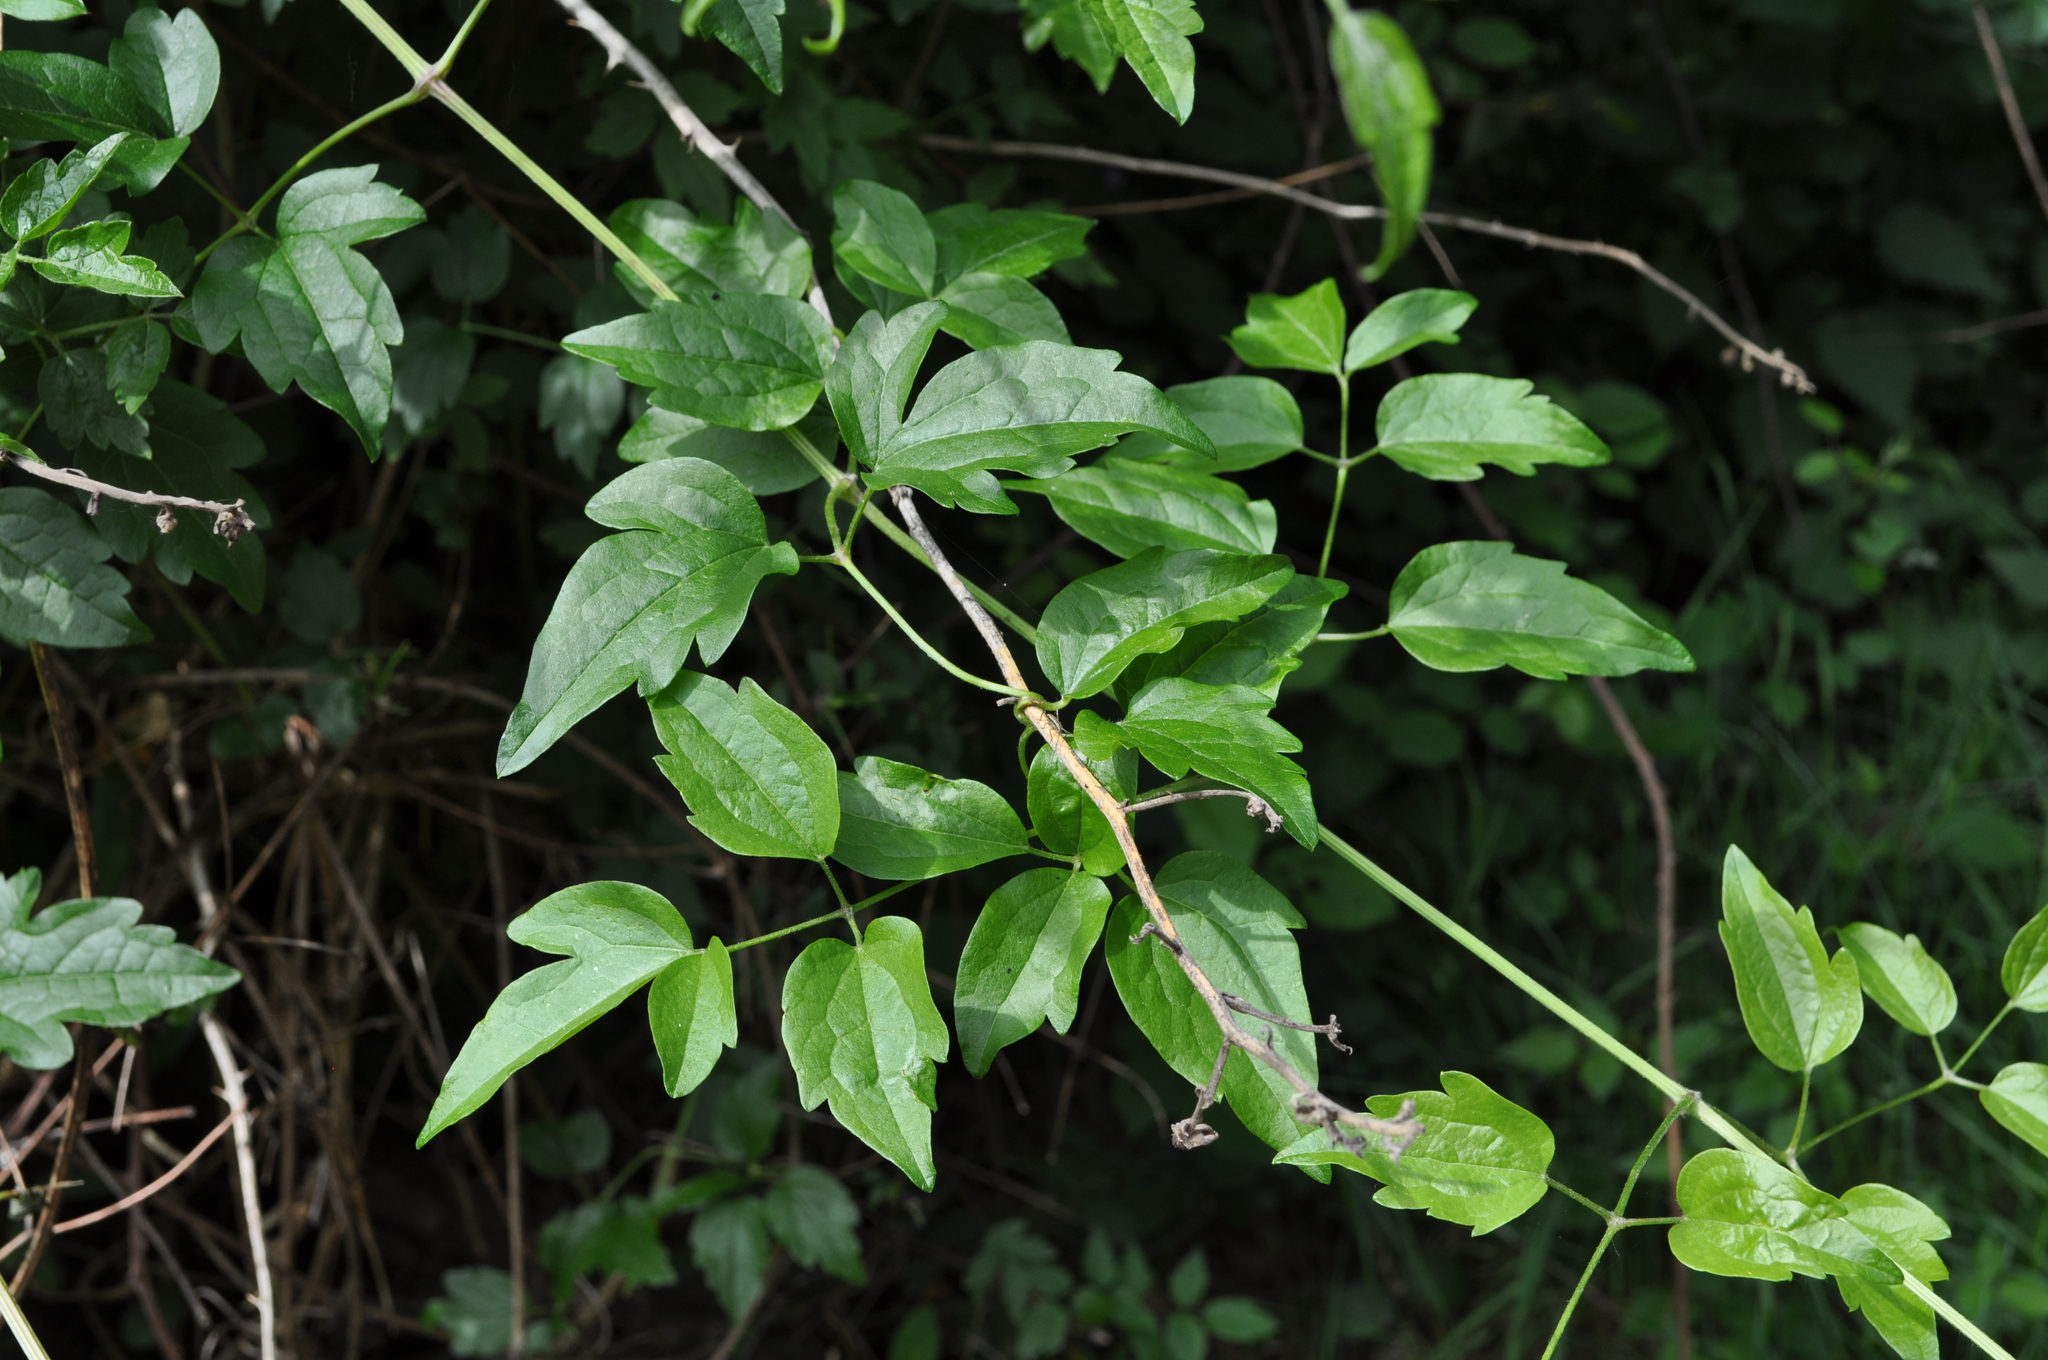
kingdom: Plantae
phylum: Tracheophyta
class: Magnoliopsida
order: Ranunculales
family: Ranunculaceae
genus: Clematis
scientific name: Clematis vitalba
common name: Evergreen clematis
